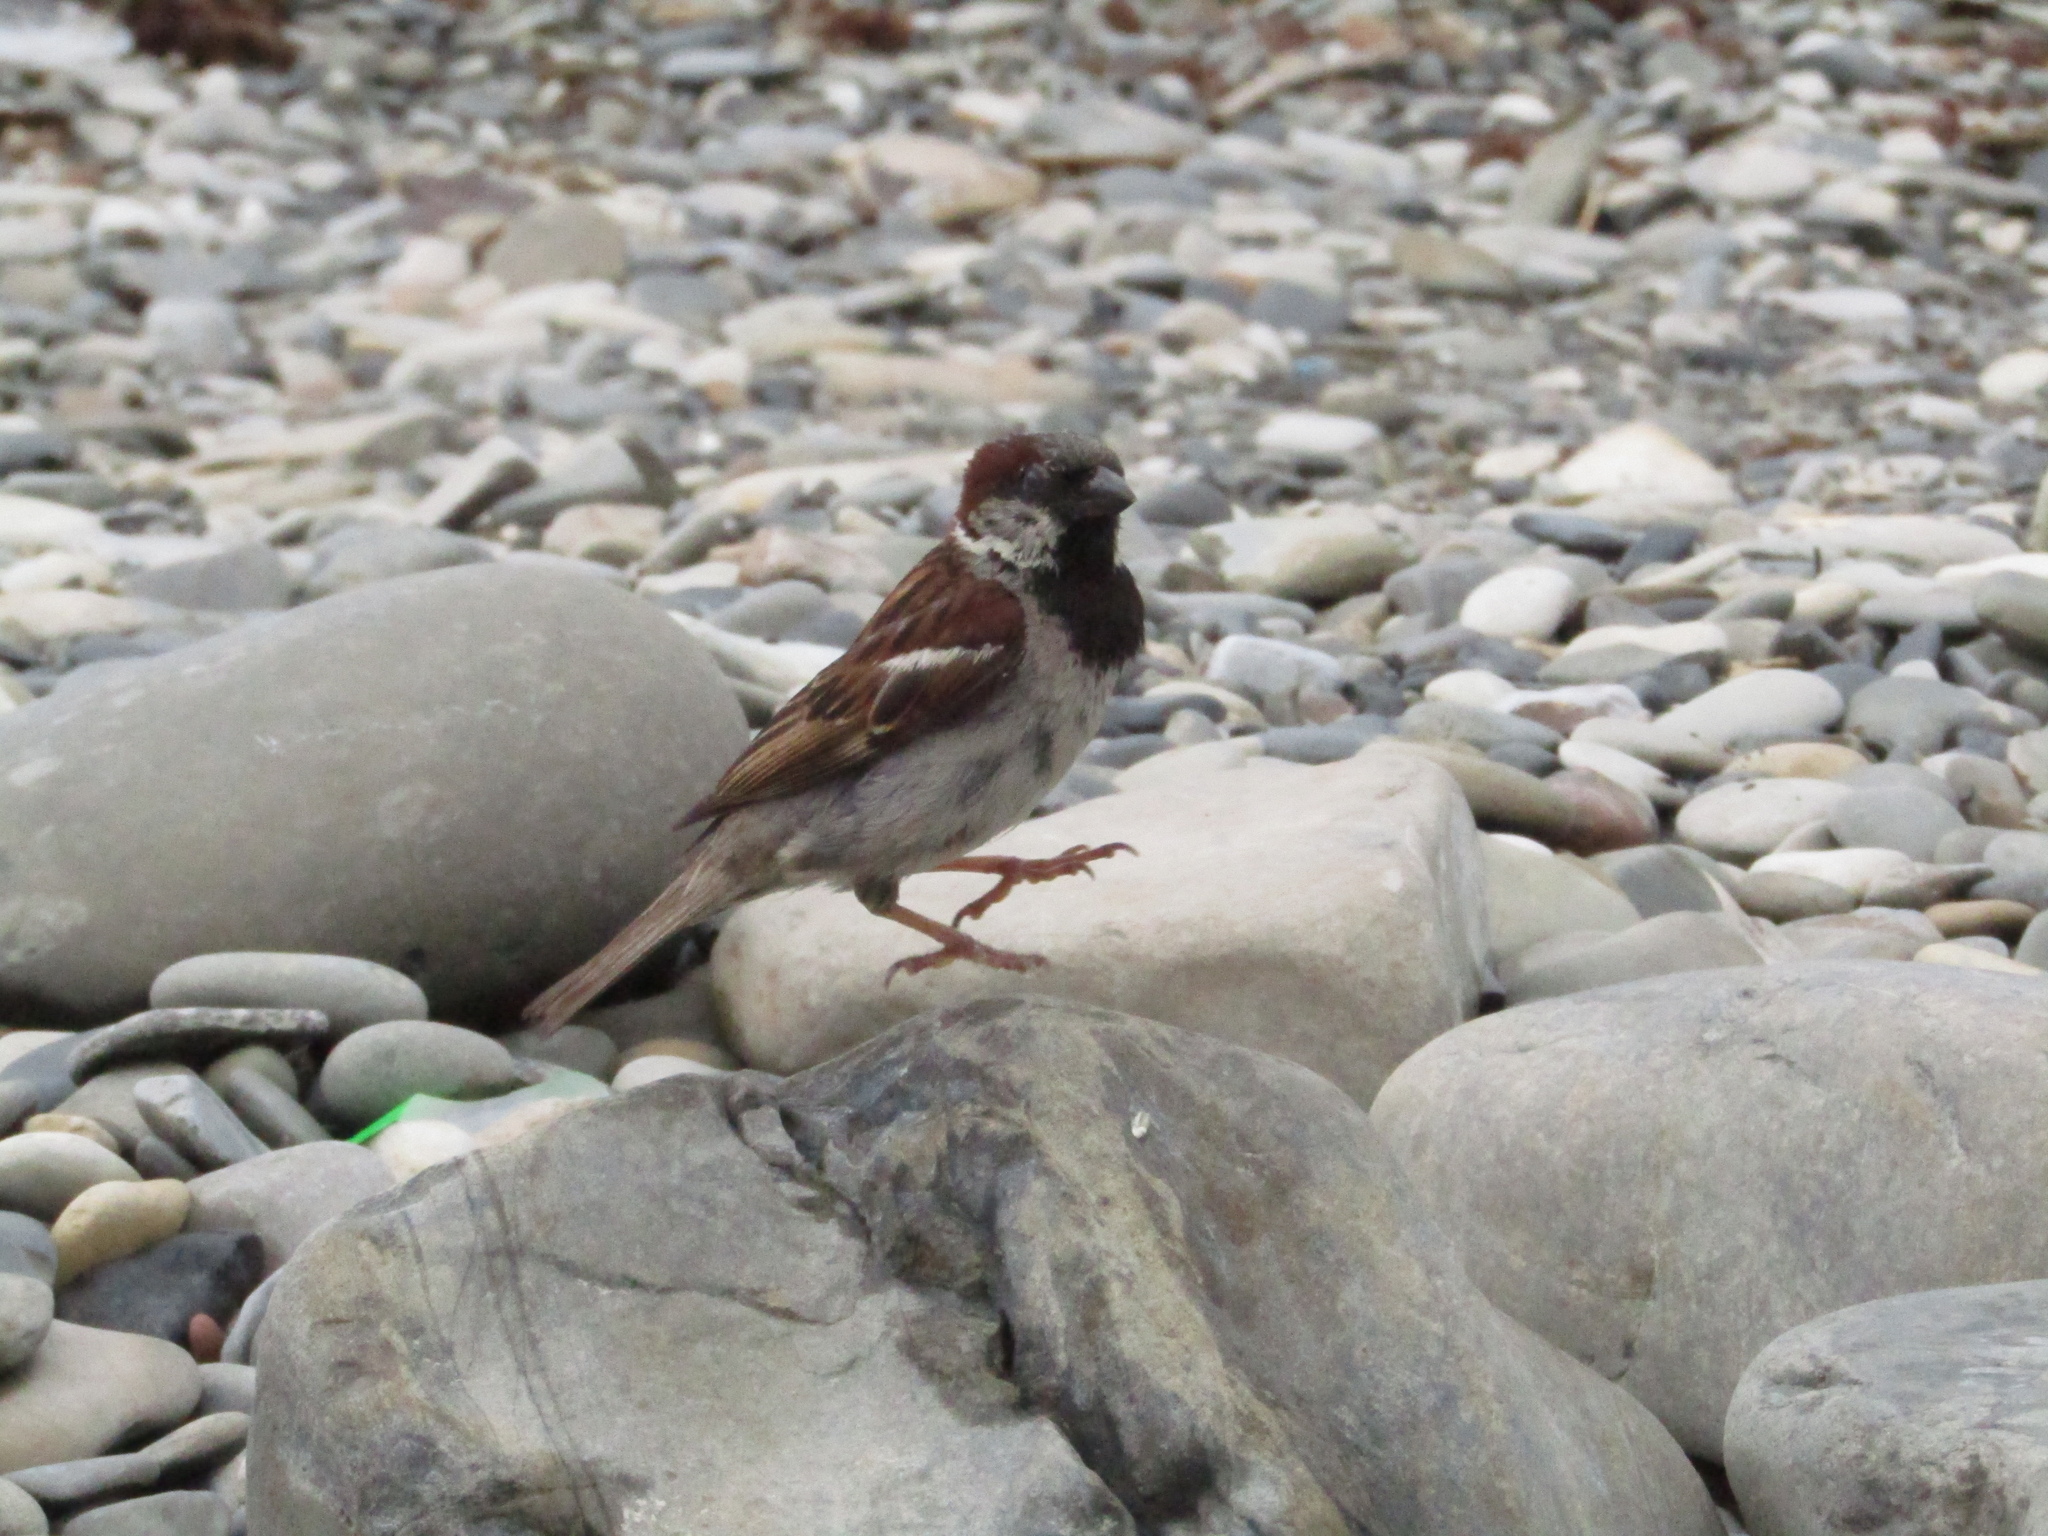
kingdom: Animalia
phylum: Chordata
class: Aves
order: Passeriformes
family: Passeridae
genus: Passer
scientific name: Passer domesticus
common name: House sparrow
